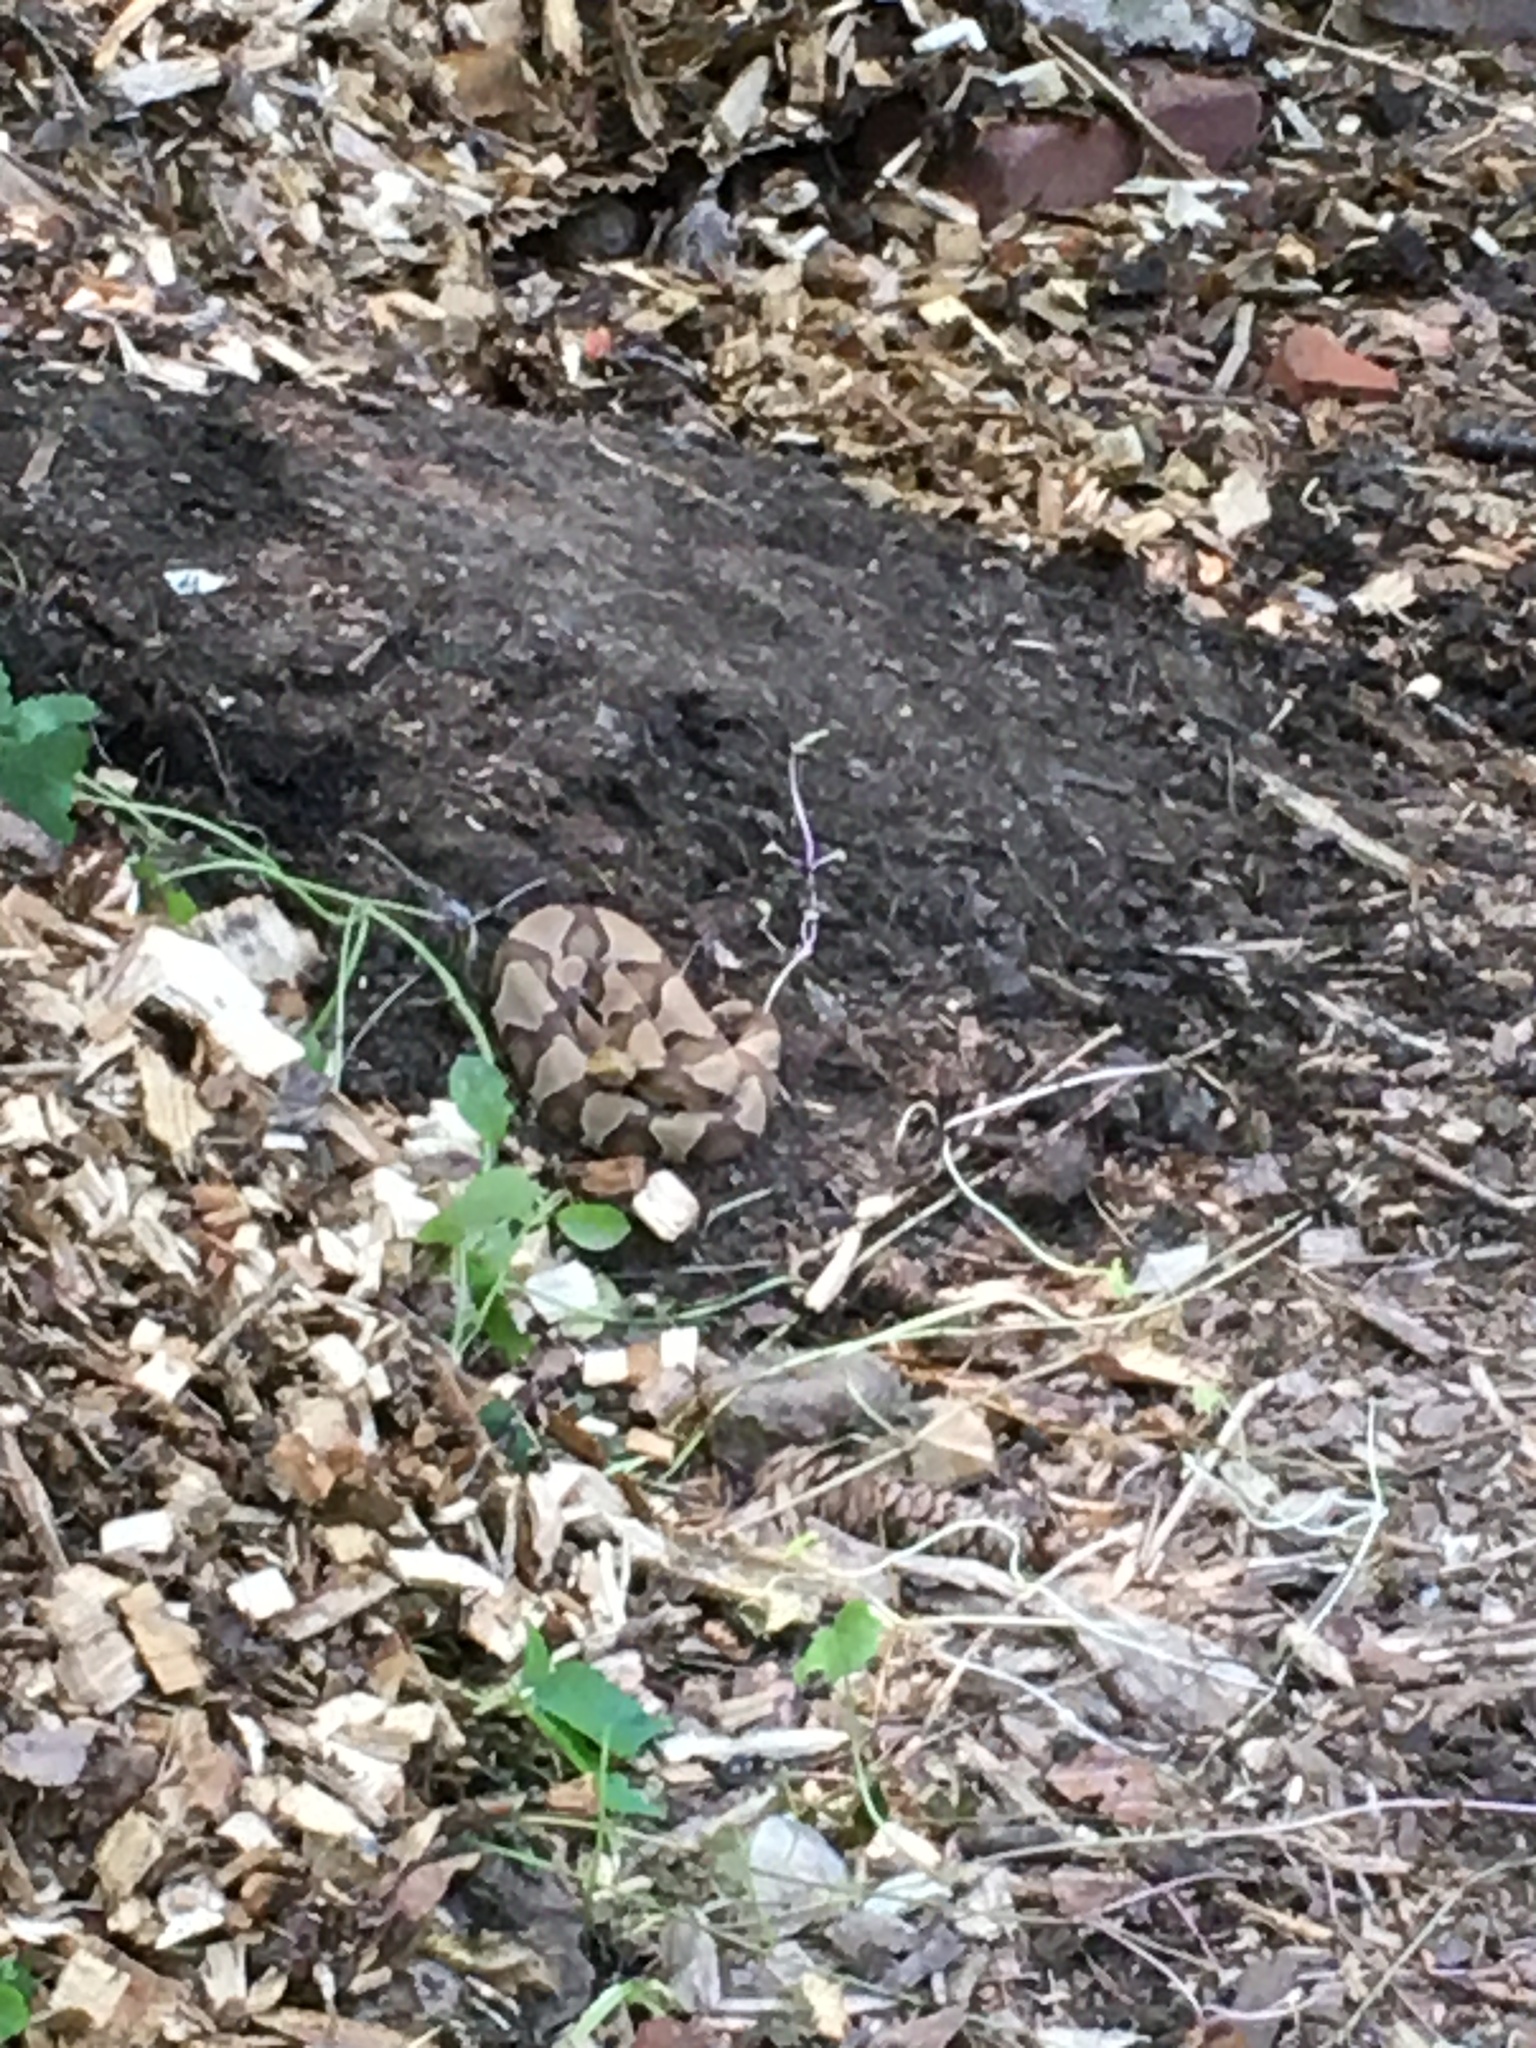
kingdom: Animalia
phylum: Chordata
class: Squamata
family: Viperidae
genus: Agkistrodon
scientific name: Agkistrodon contortrix
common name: Northern copperhead
